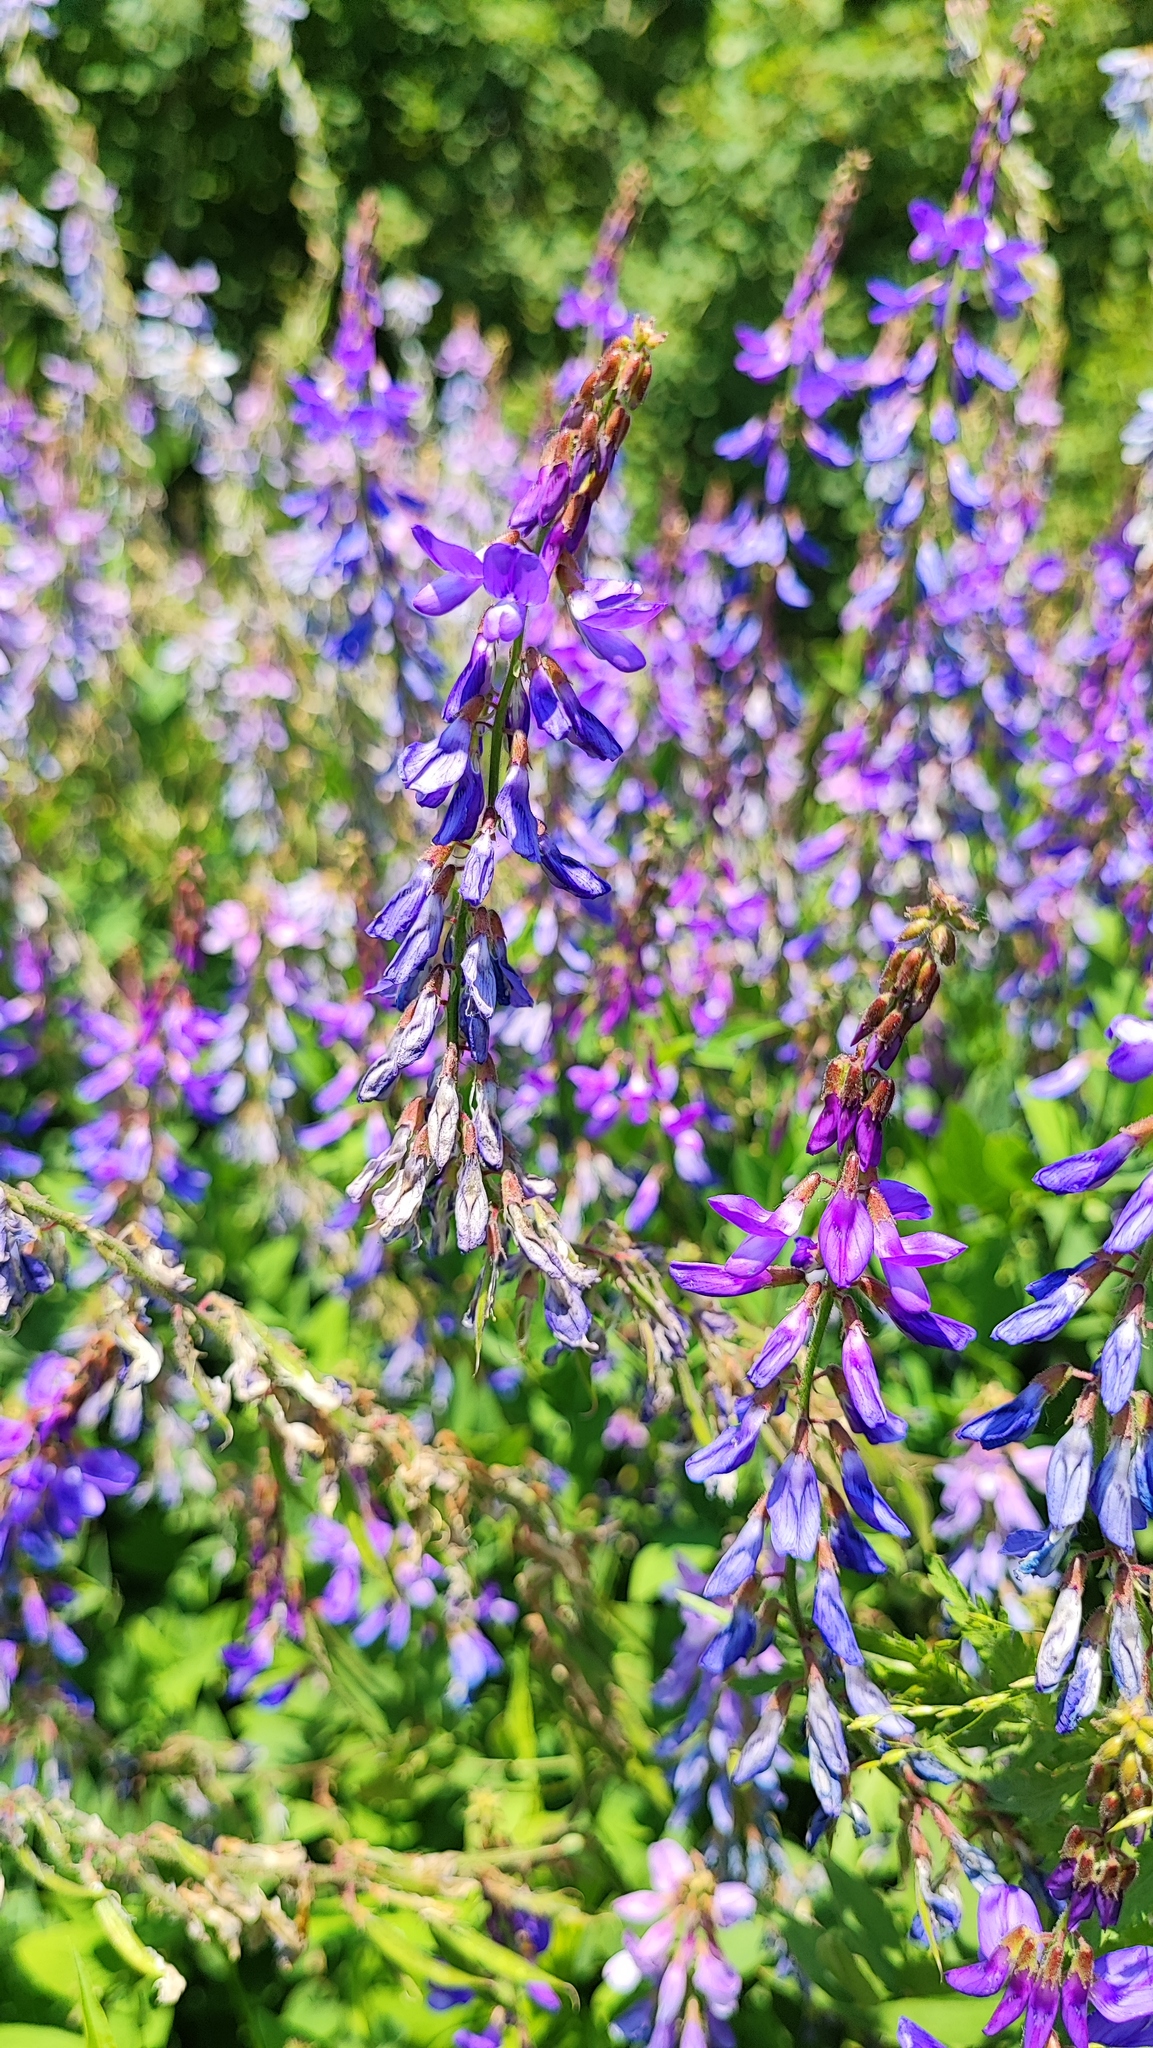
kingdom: Plantae
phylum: Tracheophyta
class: Magnoliopsida
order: Fabales
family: Fabaceae
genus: Galega
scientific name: Galega orientalis
